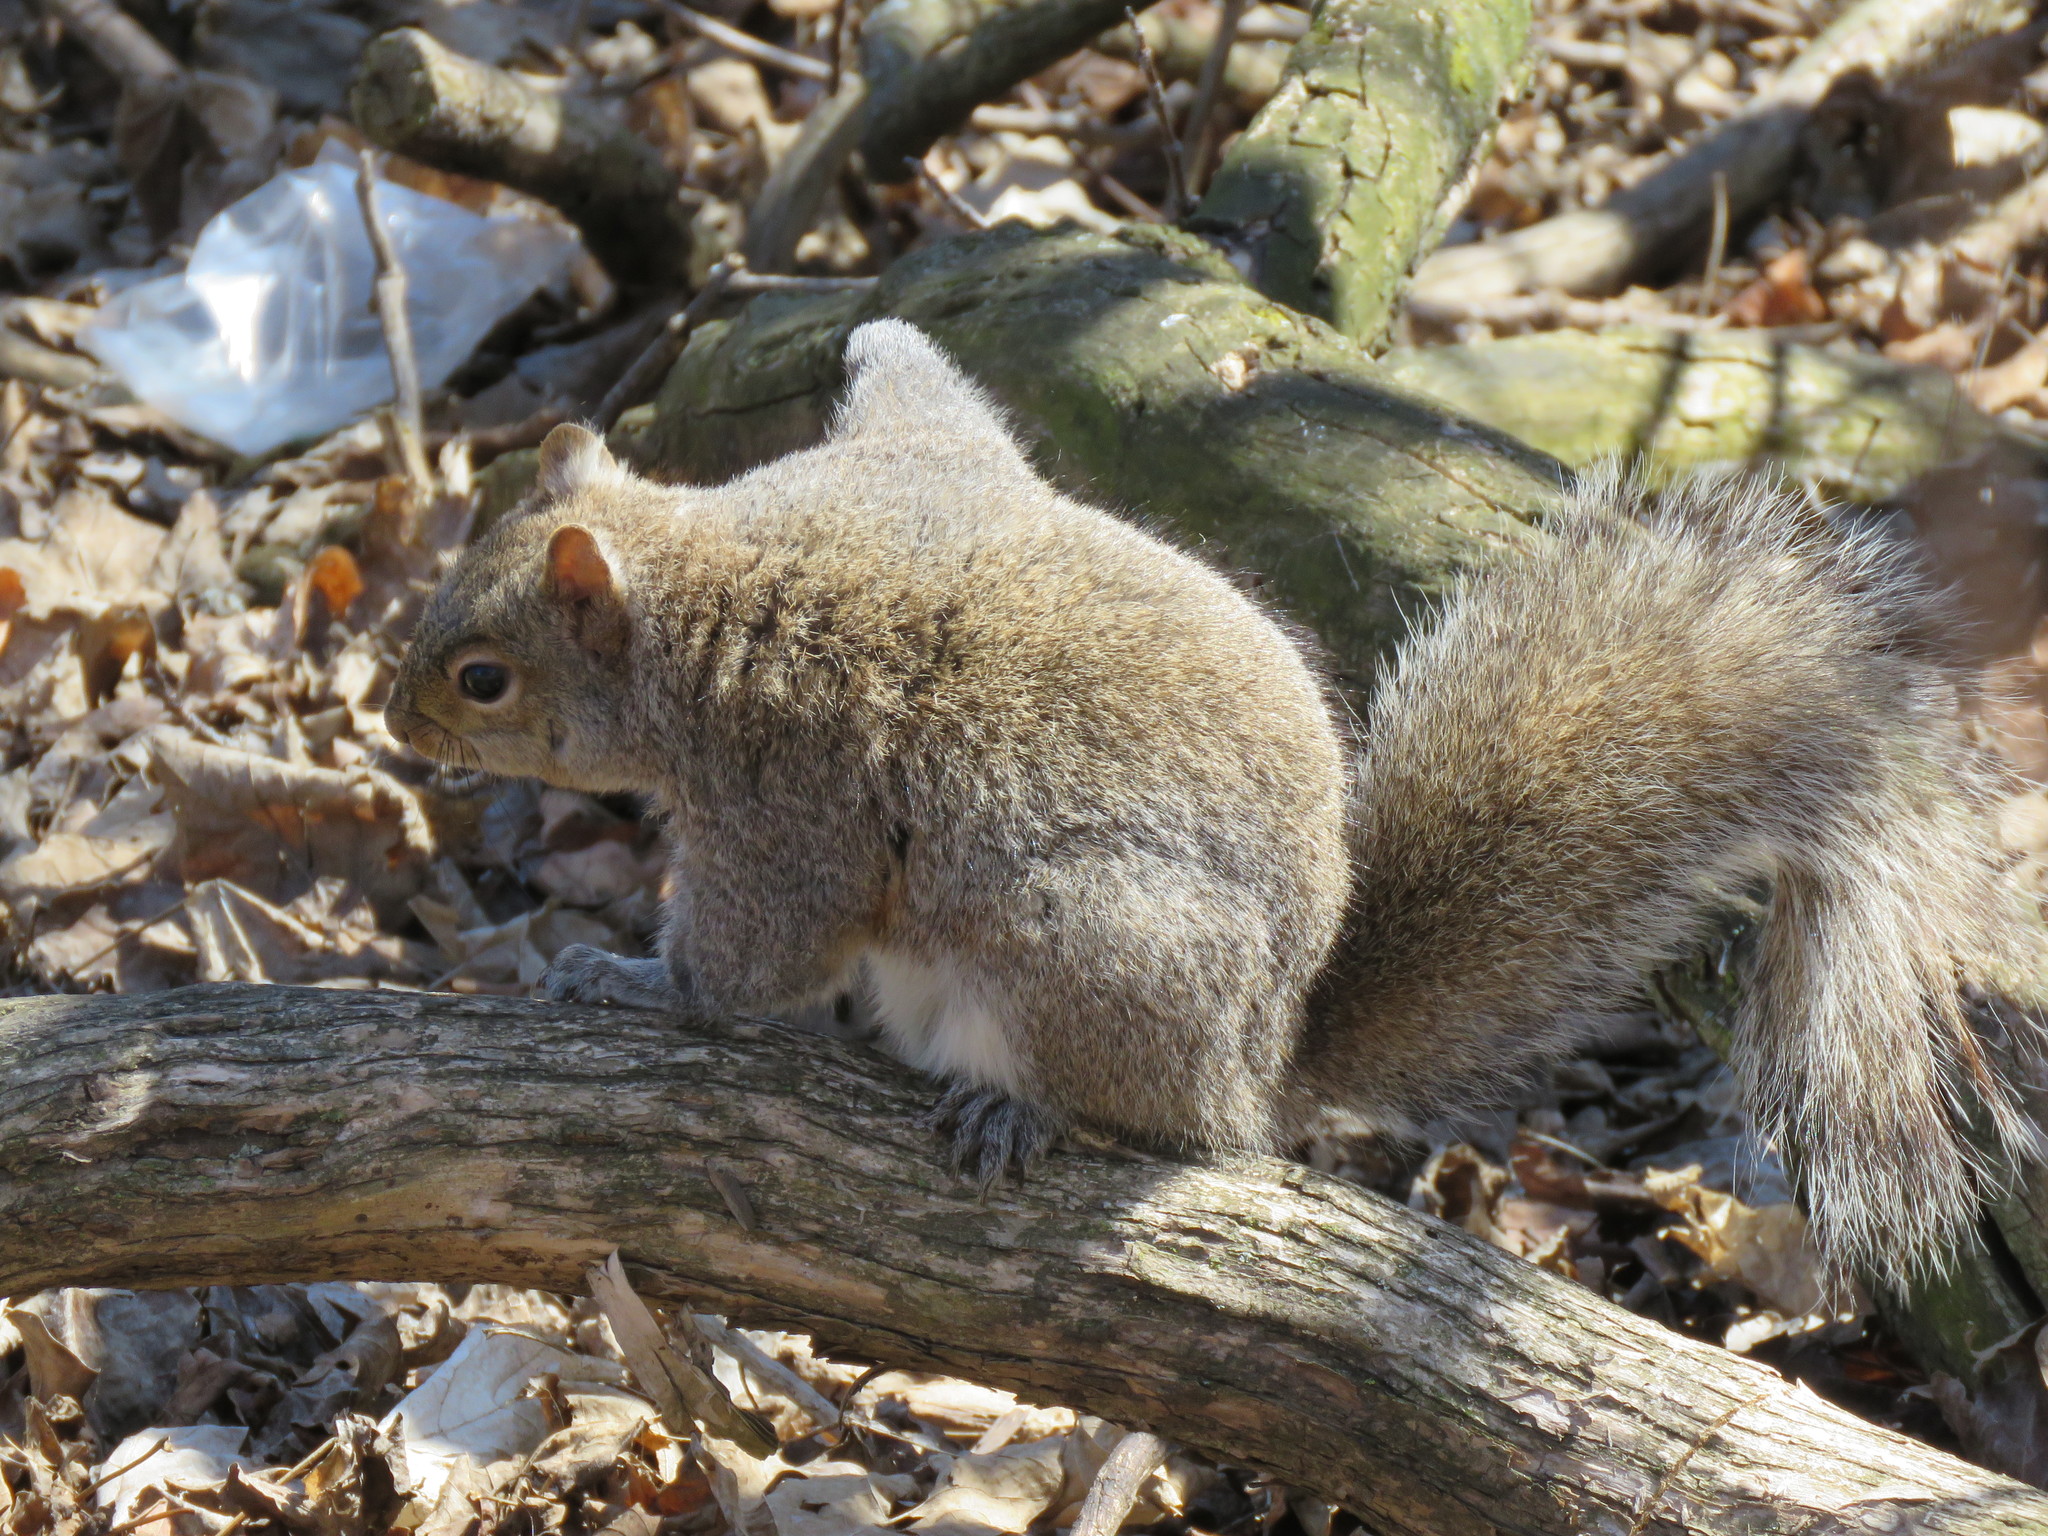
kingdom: Animalia
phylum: Chordata
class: Mammalia
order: Rodentia
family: Sciuridae
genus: Sciurus
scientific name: Sciurus carolinensis
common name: Eastern gray squirrel
